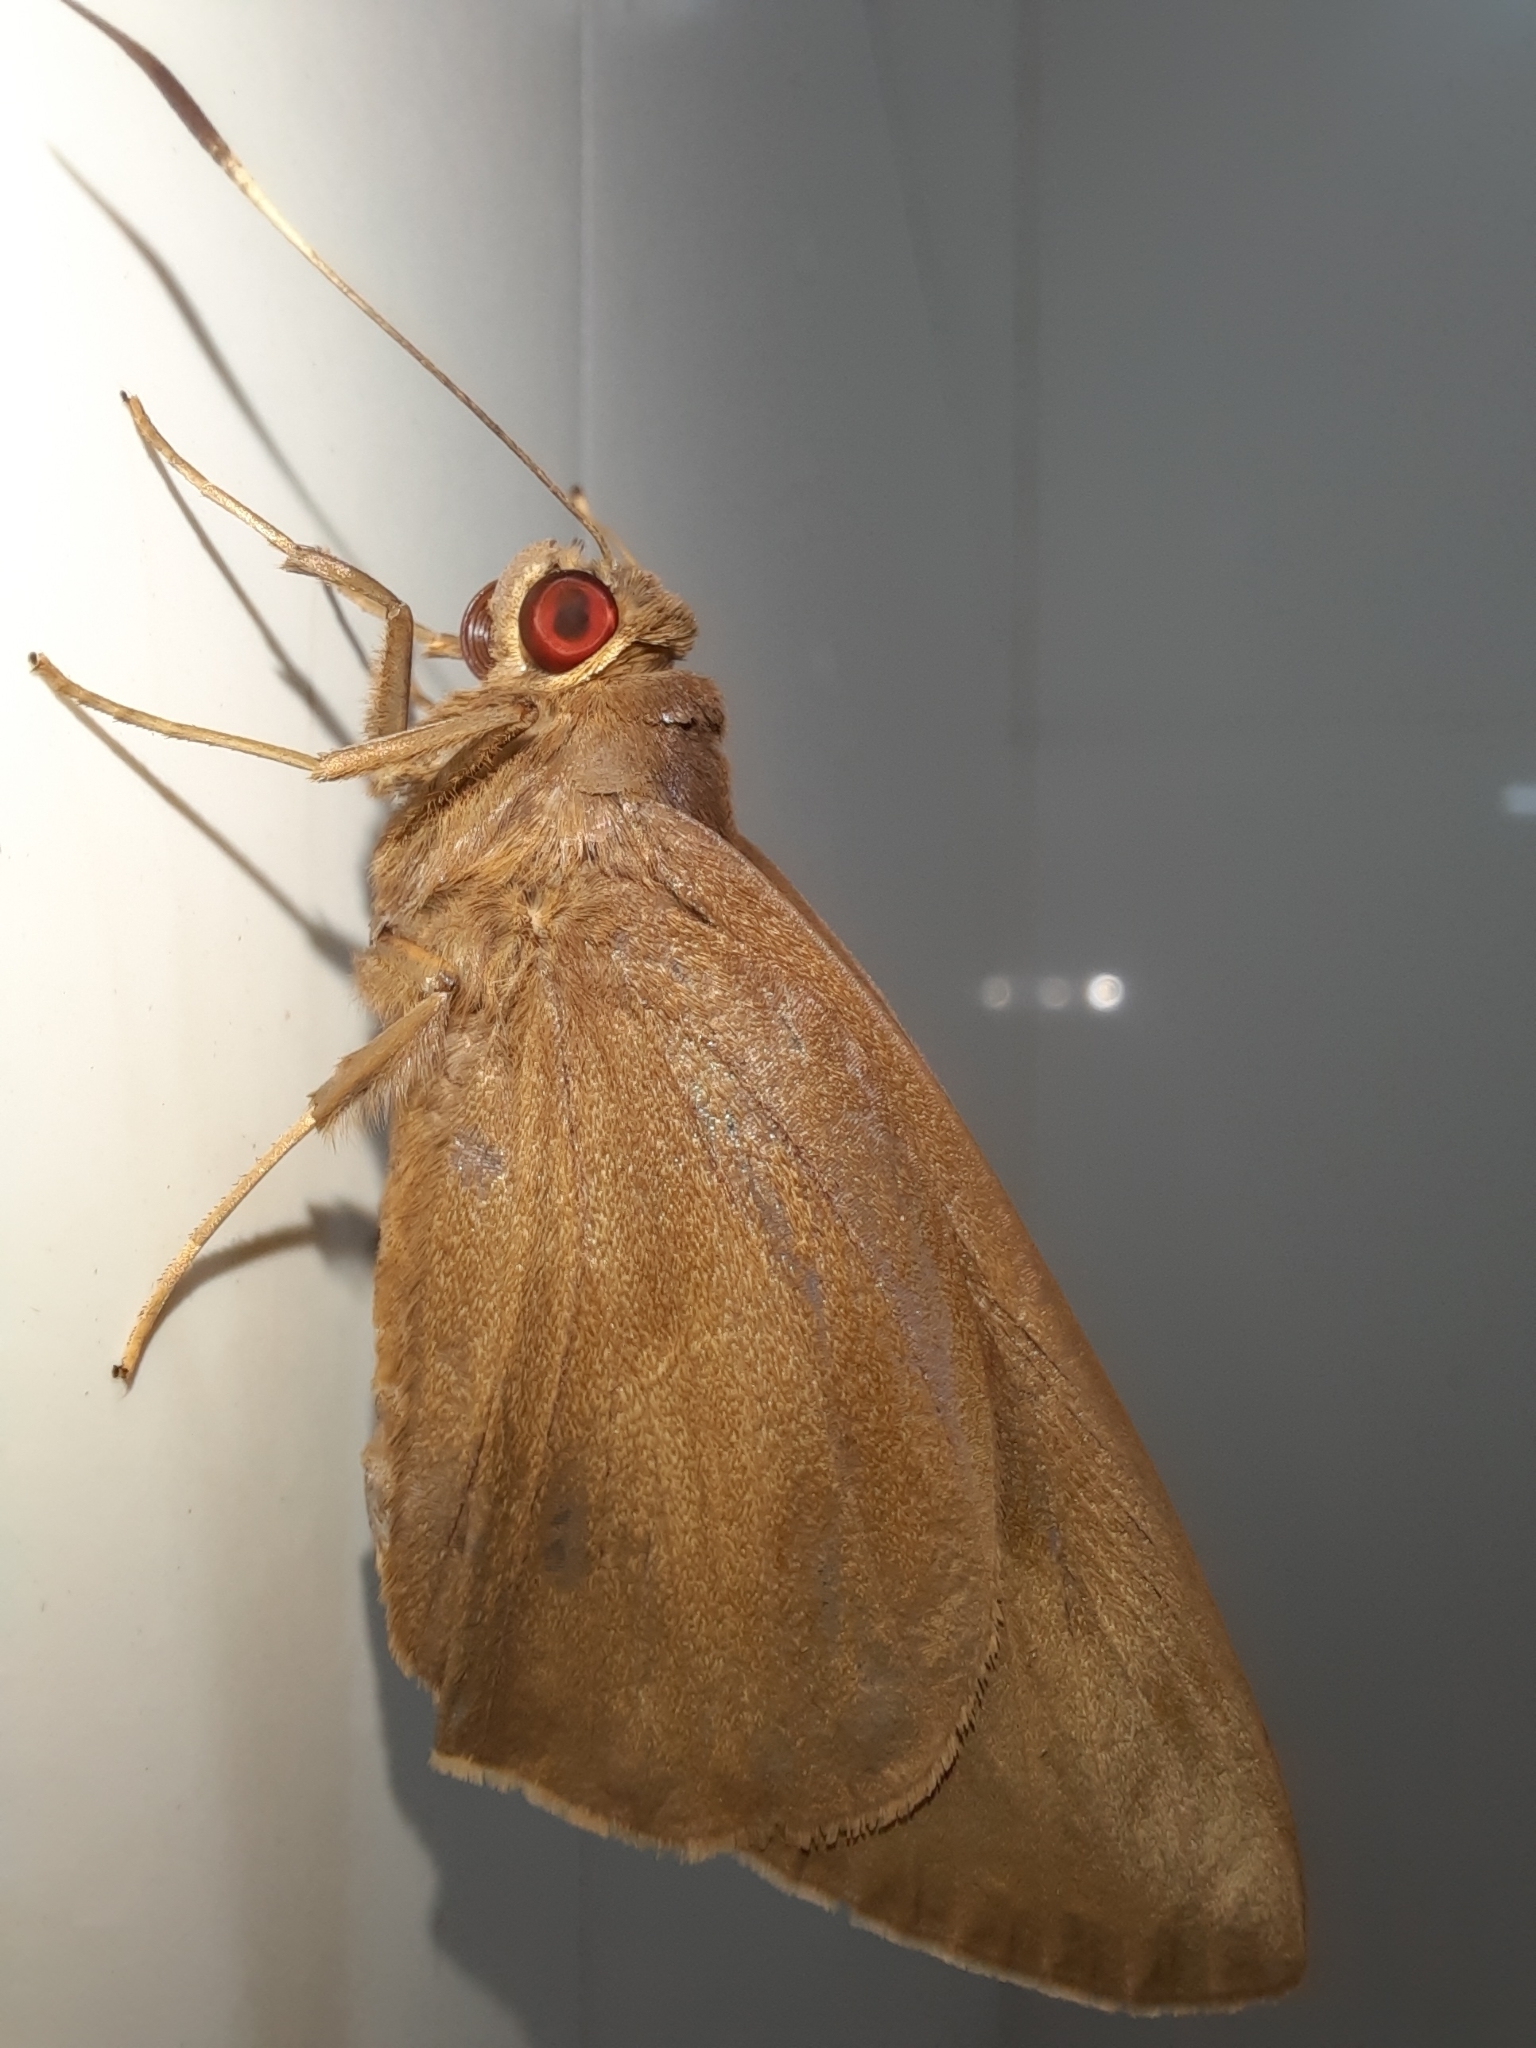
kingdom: Animalia
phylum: Arthropoda
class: Insecta
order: Lepidoptera
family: Hesperiidae
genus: Erionota
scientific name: Erionota torus
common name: Rounded palm-redeye
